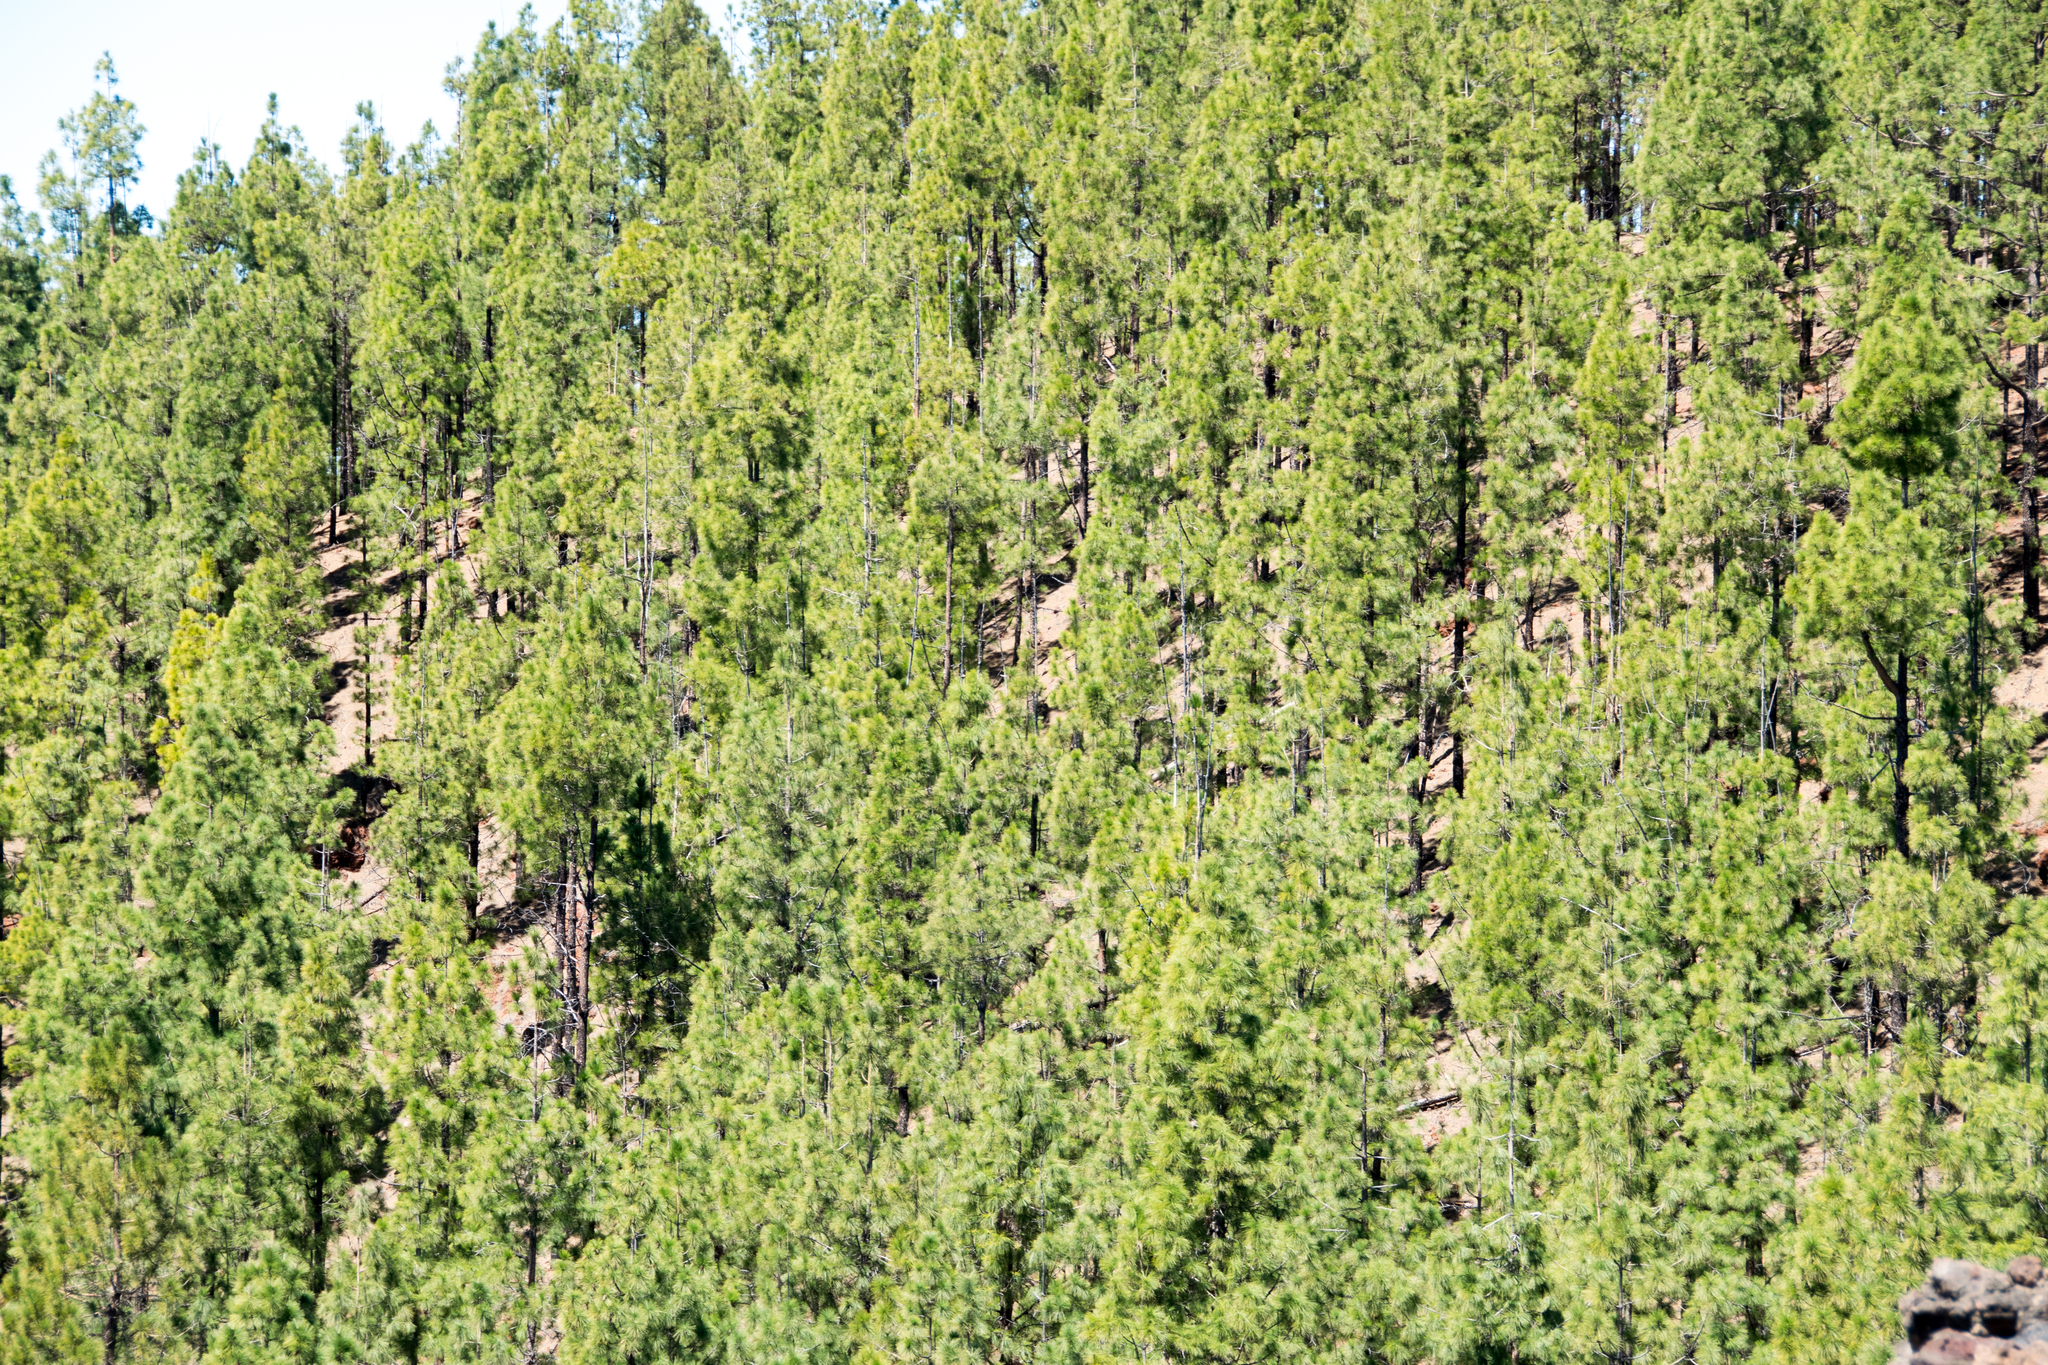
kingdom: Plantae
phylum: Tracheophyta
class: Pinopsida
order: Pinales
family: Pinaceae
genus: Pinus
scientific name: Pinus canariensis
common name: Canary islands pine
